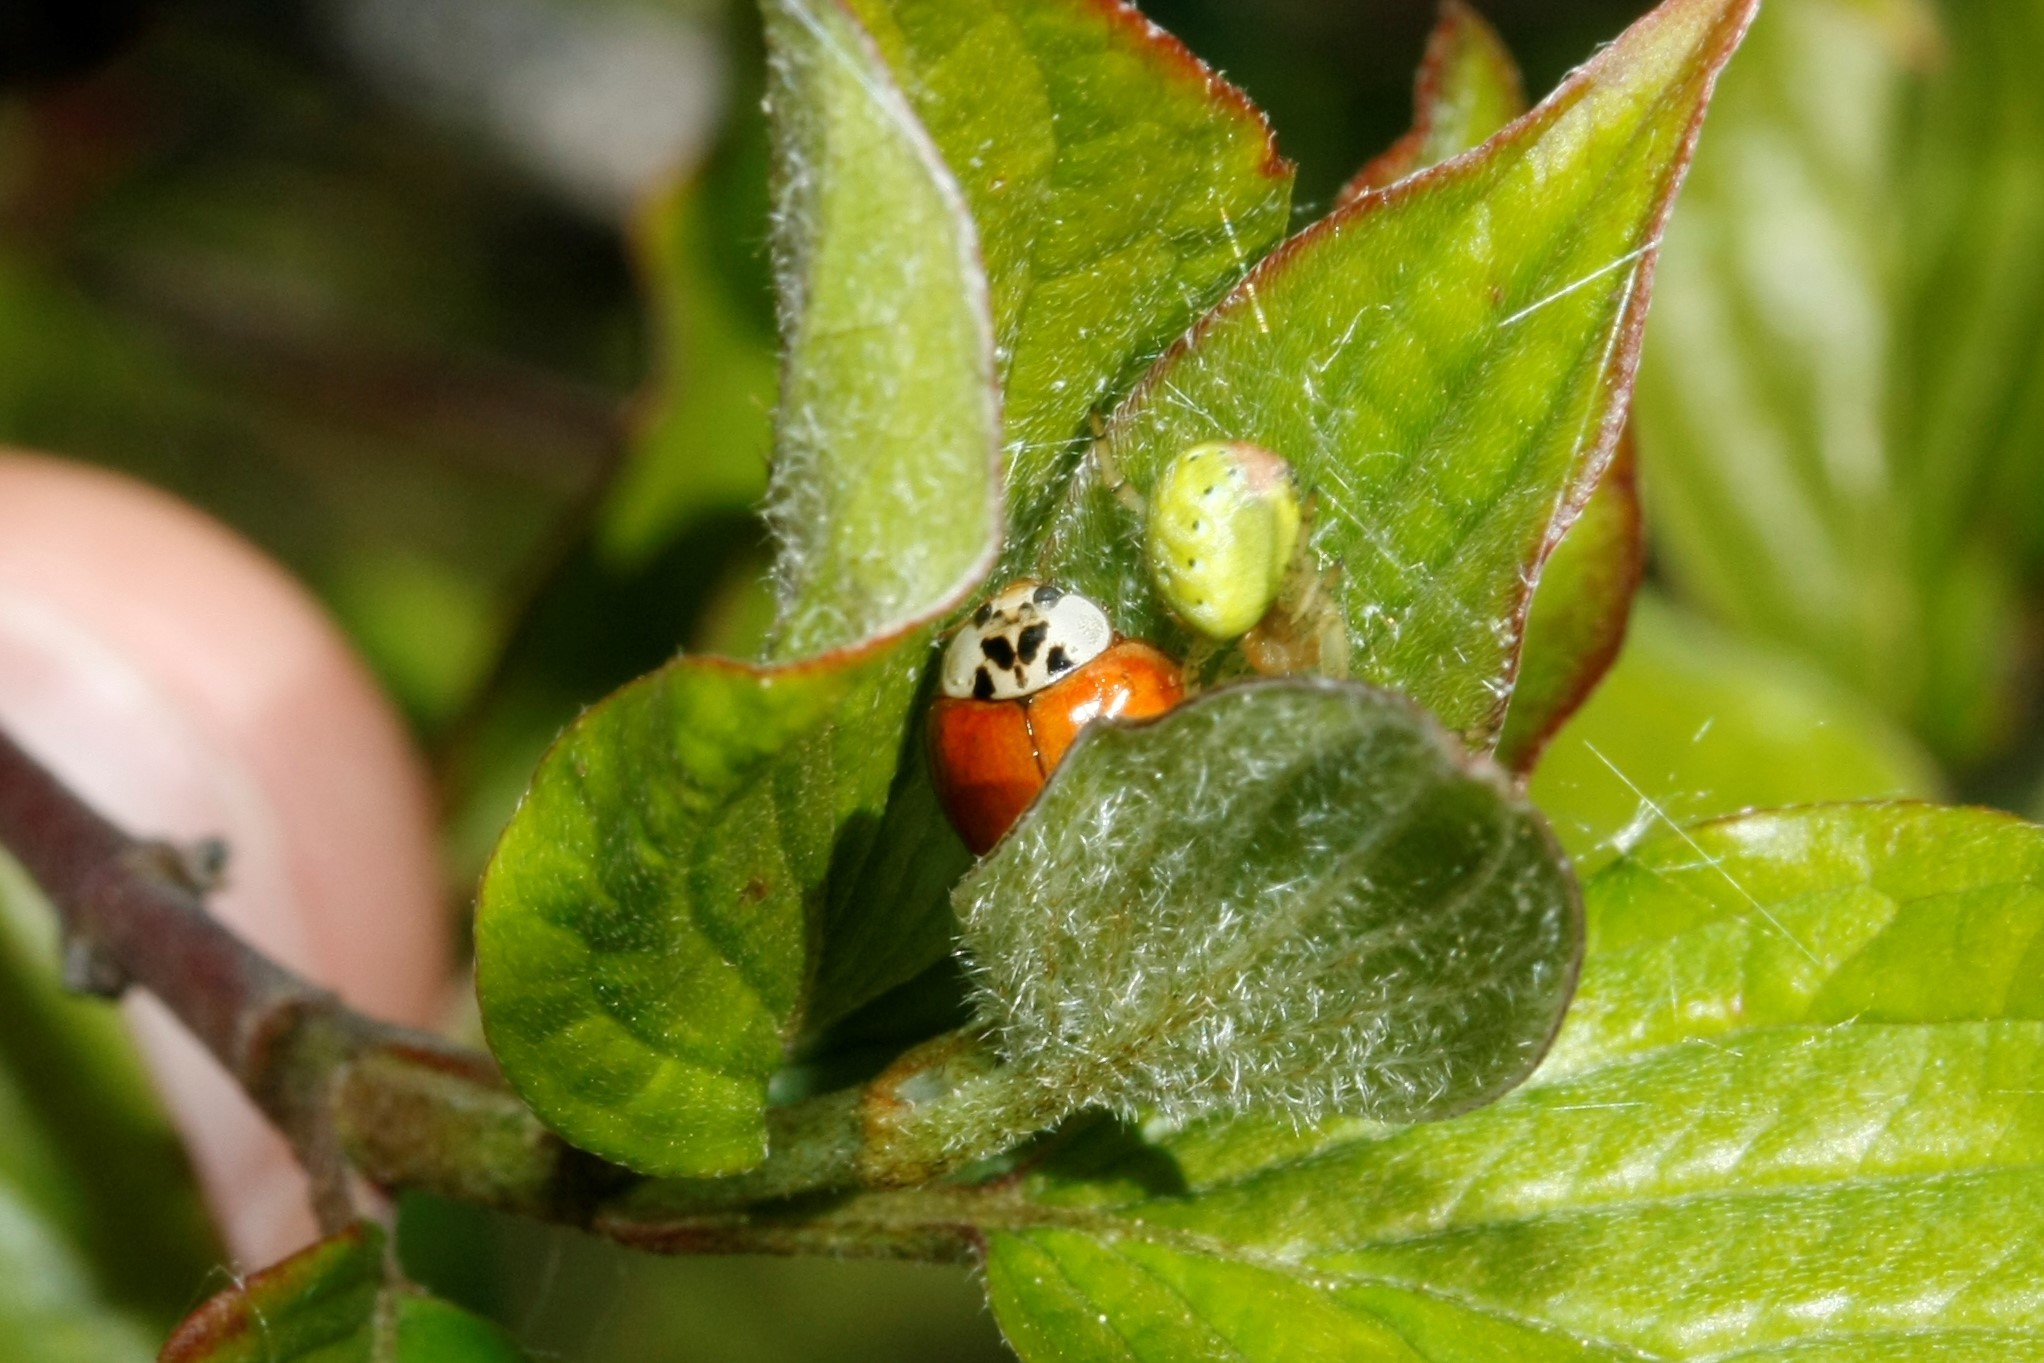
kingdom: Animalia
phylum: Arthropoda
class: Insecta
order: Coleoptera
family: Coccinellidae
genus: Harmonia
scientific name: Harmonia axyridis
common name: Harlequin ladybird
